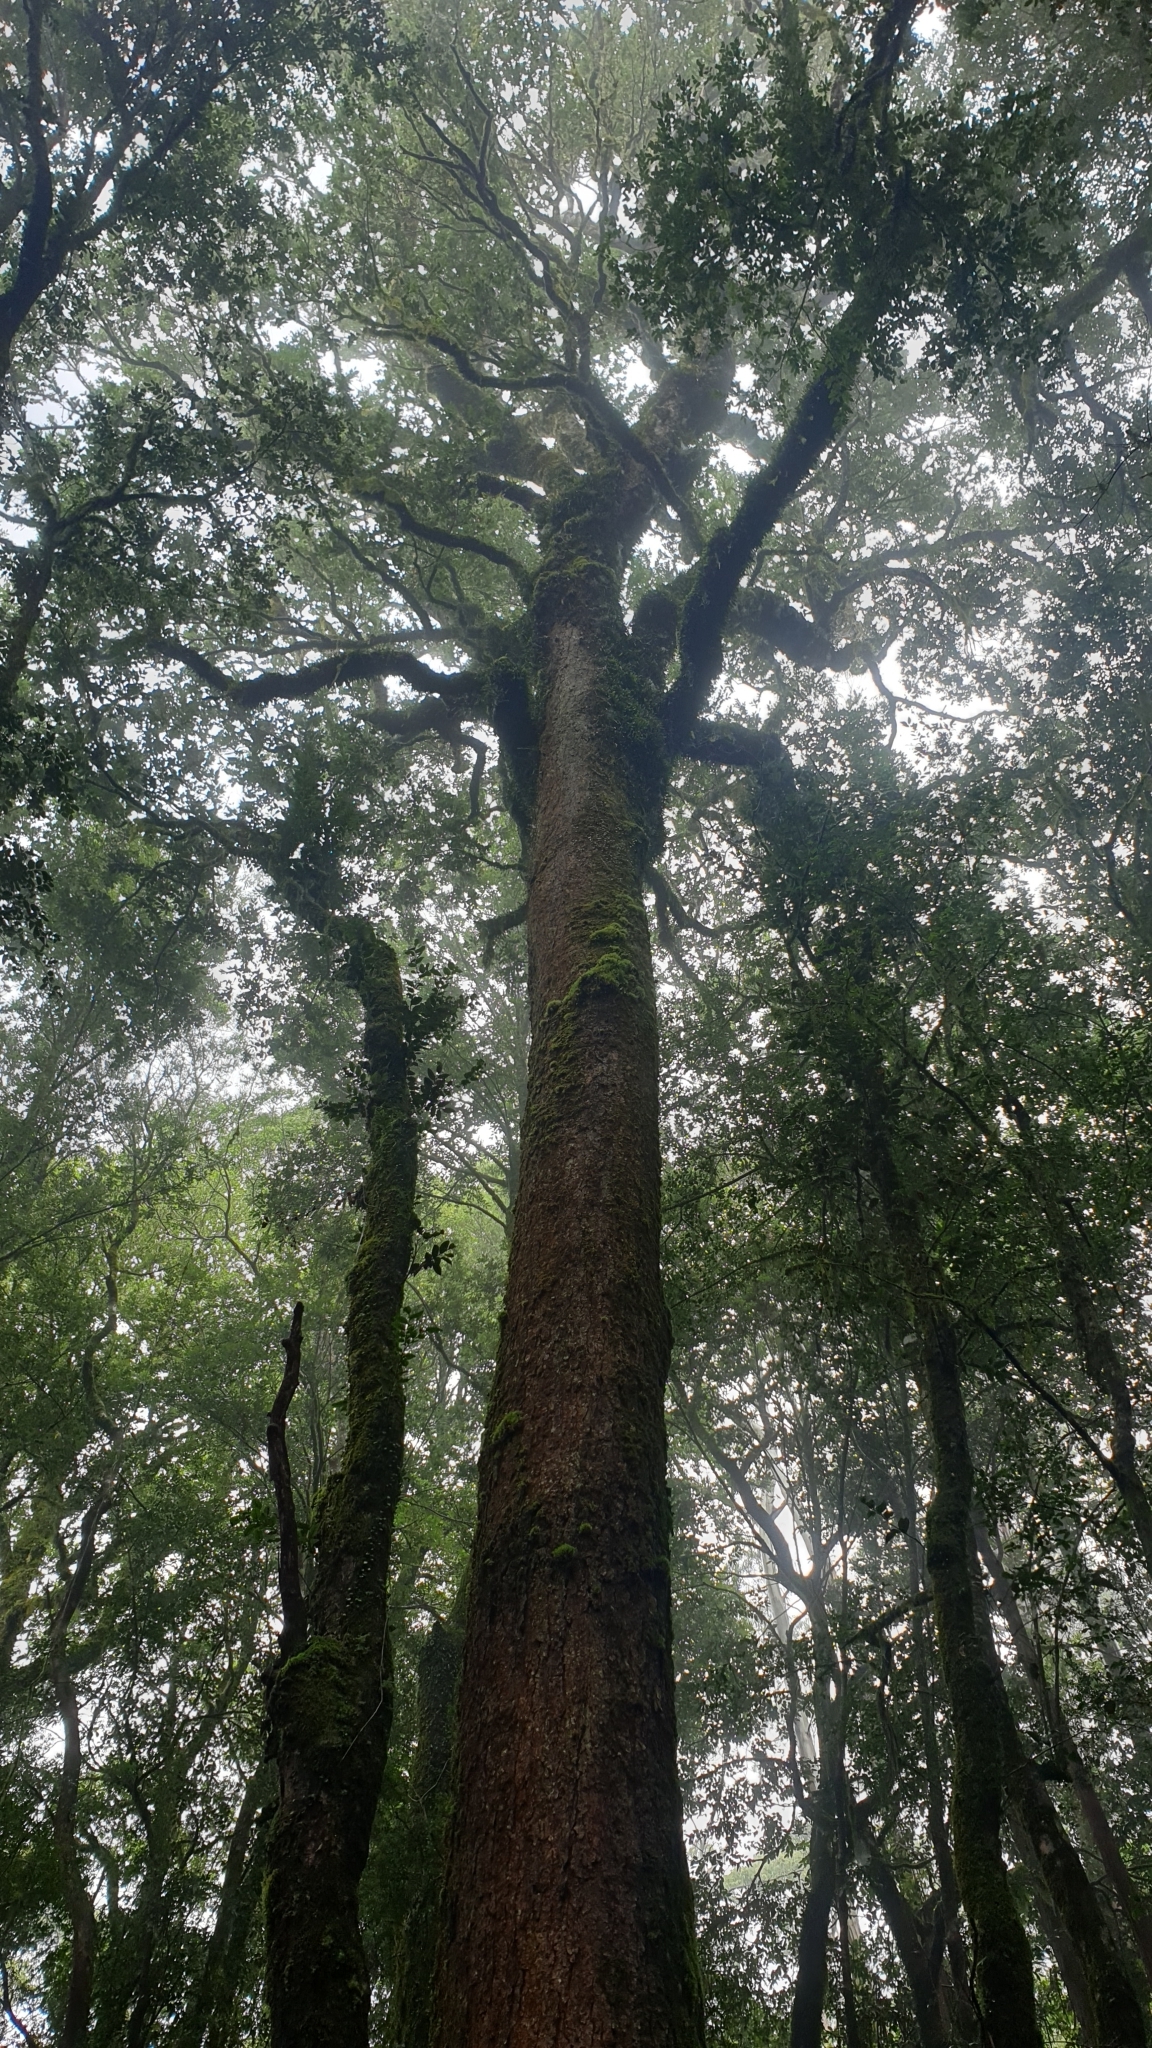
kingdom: Plantae
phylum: Tracheophyta
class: Magnoliopsida
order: Fagales
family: Nothofagaceae
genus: Nothofagus
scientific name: Nothofagus moorei
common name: Antarctic beech
